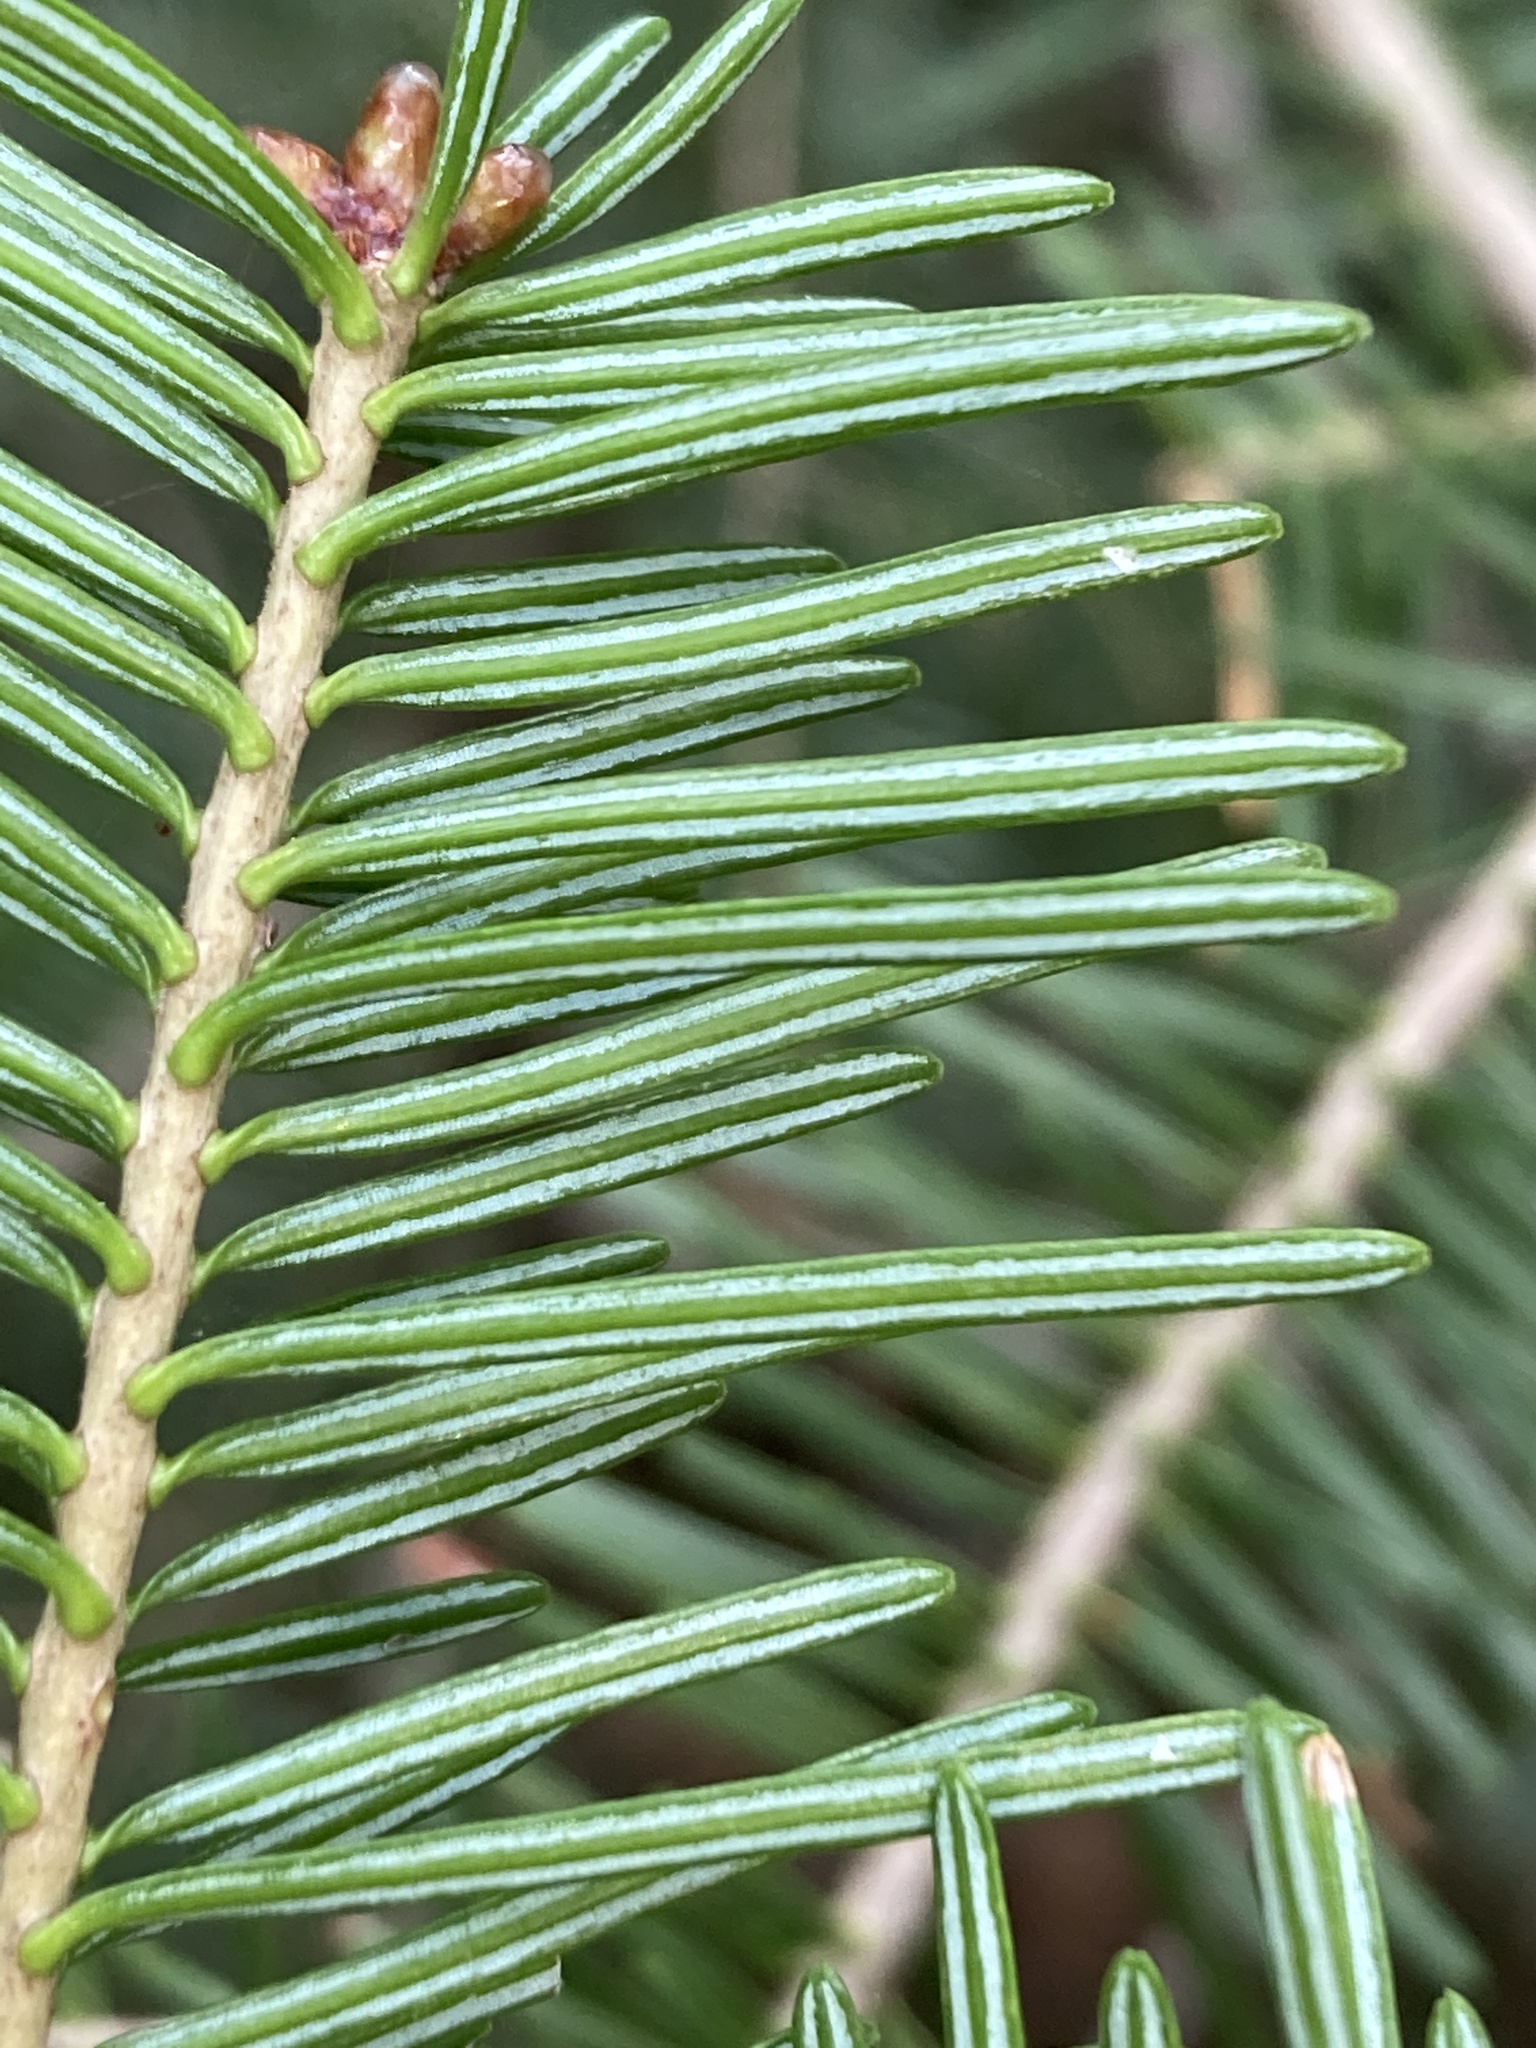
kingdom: Plantae
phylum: Tracheophyta
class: Pinopsida
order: Pinales
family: Pinaceae
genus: Abies
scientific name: Abies balsamea
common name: Balsam fir
